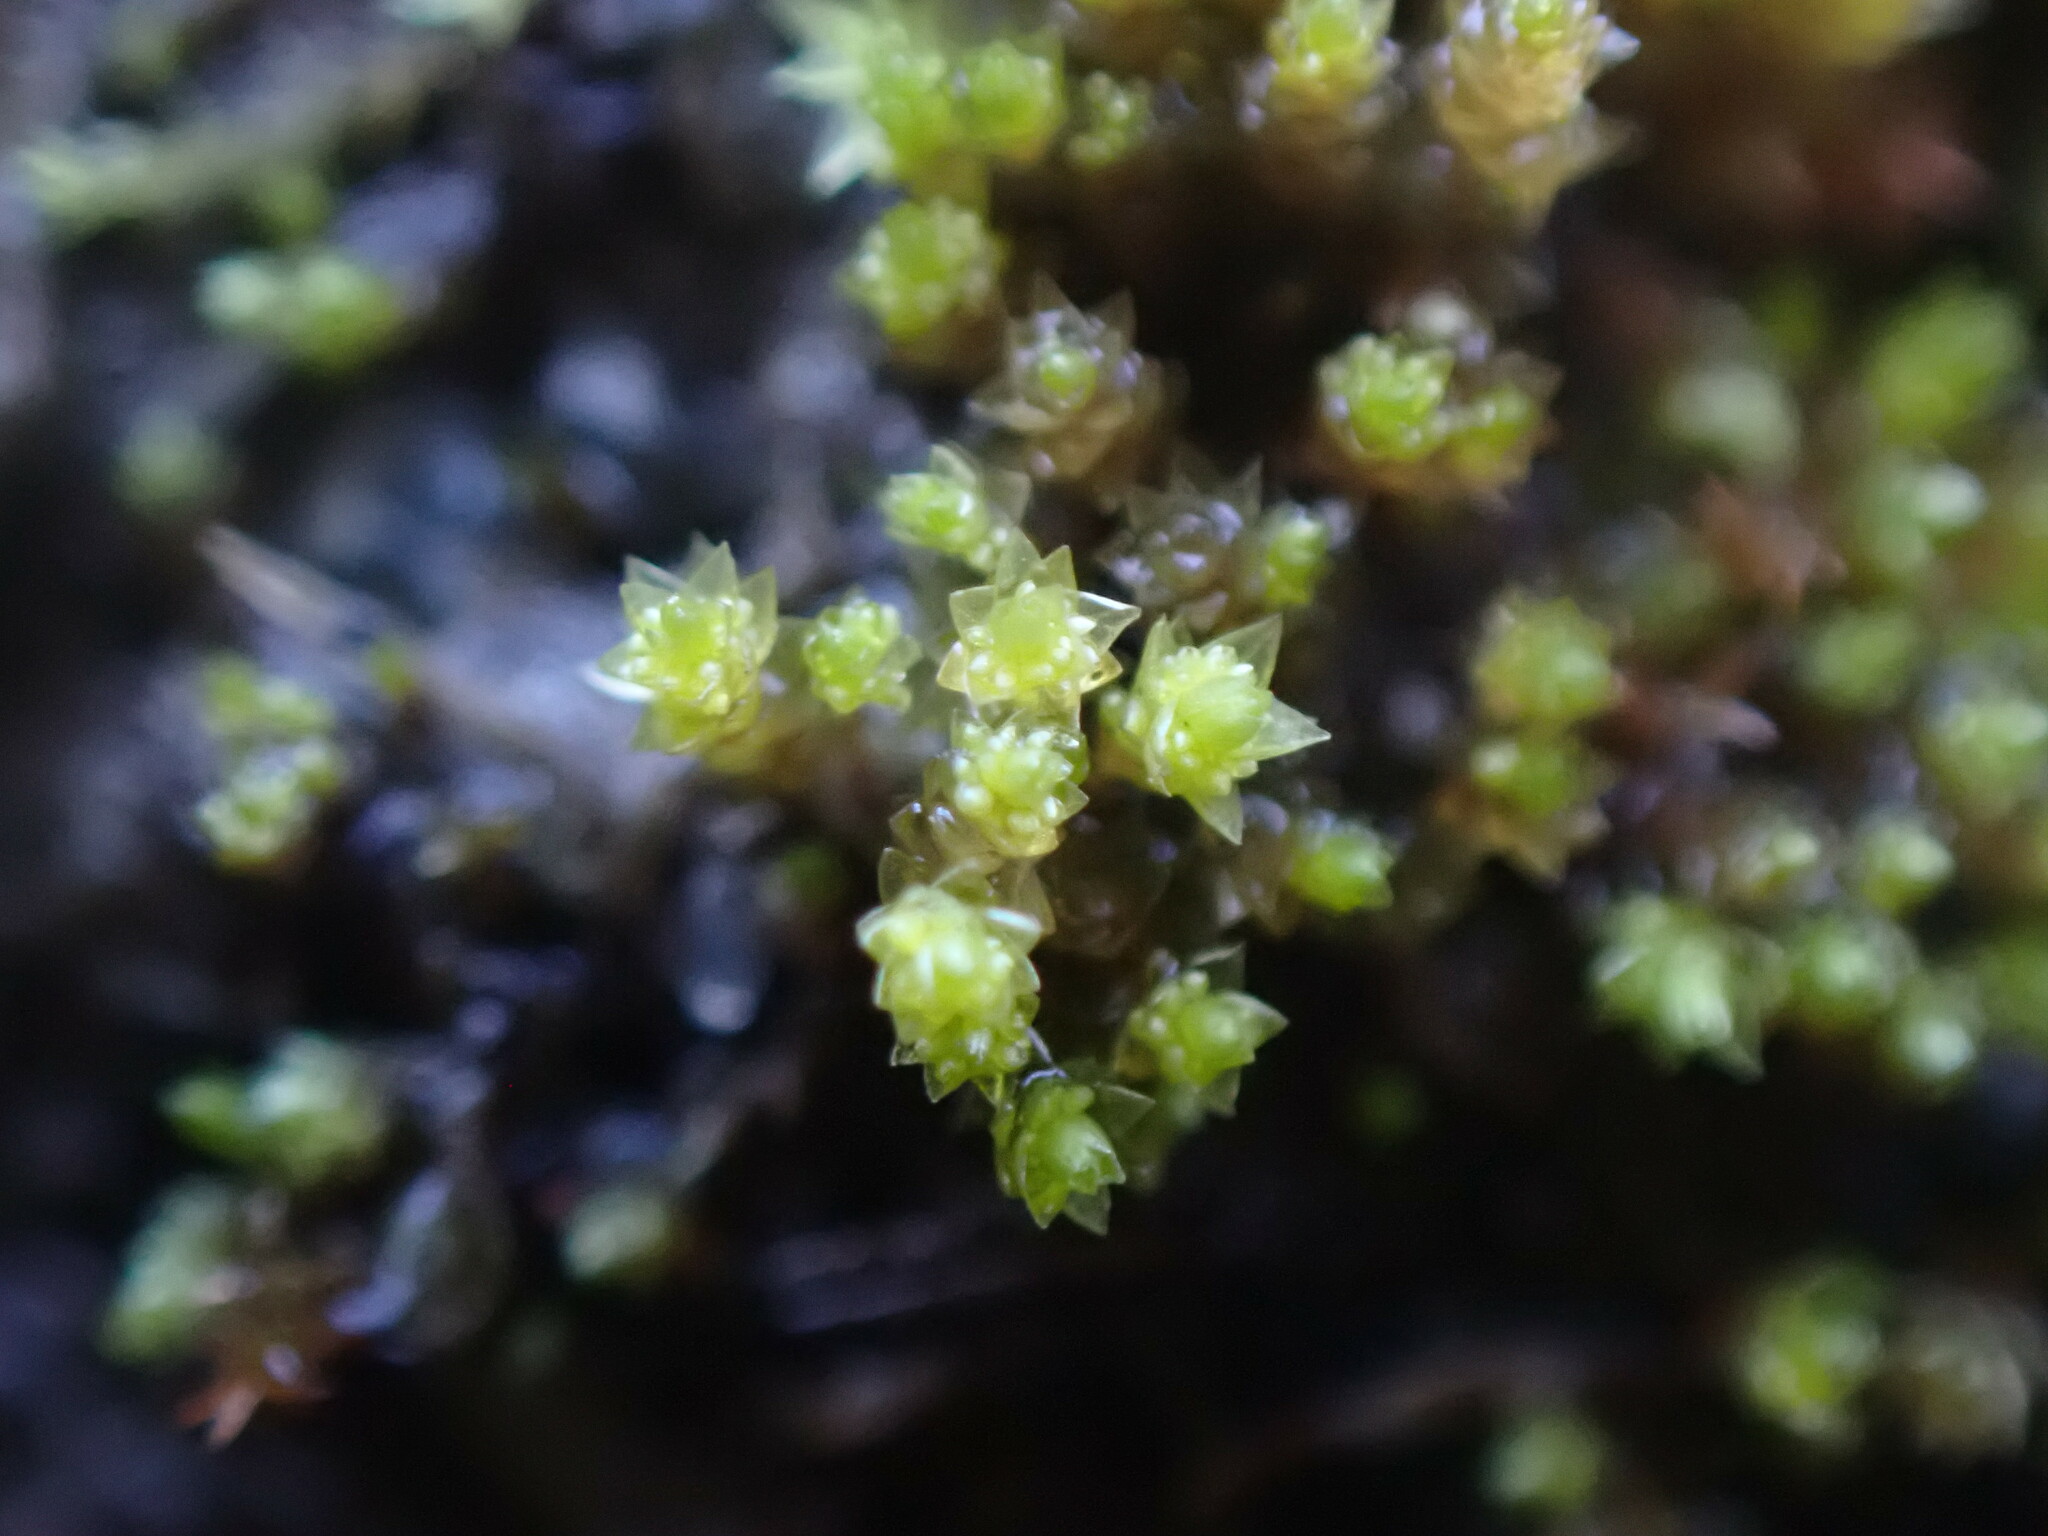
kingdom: Plantae
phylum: Bryophyta
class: Bryopsida
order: Bryales
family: Bryaceae
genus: Gemmabryum
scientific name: Gemmabryum
